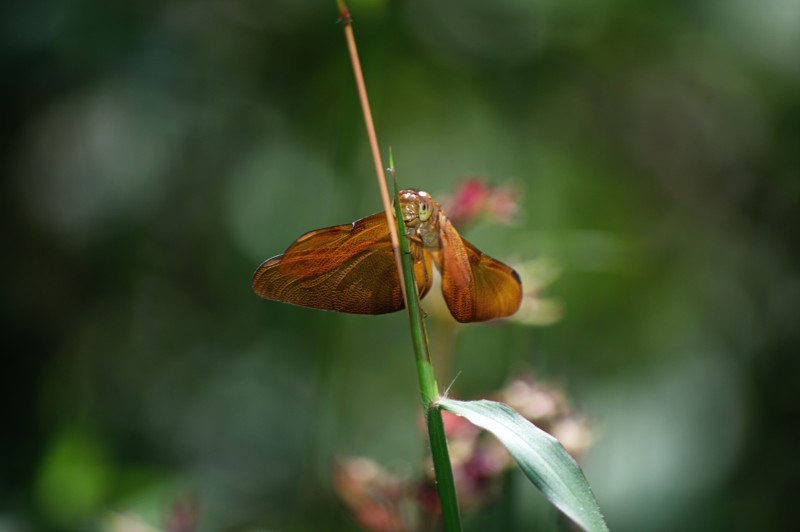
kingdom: Animalia
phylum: Arthropoda
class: Insecta
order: Odonata
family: Libellulidae
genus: Neurothemis
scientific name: Neurothemis fulvia
